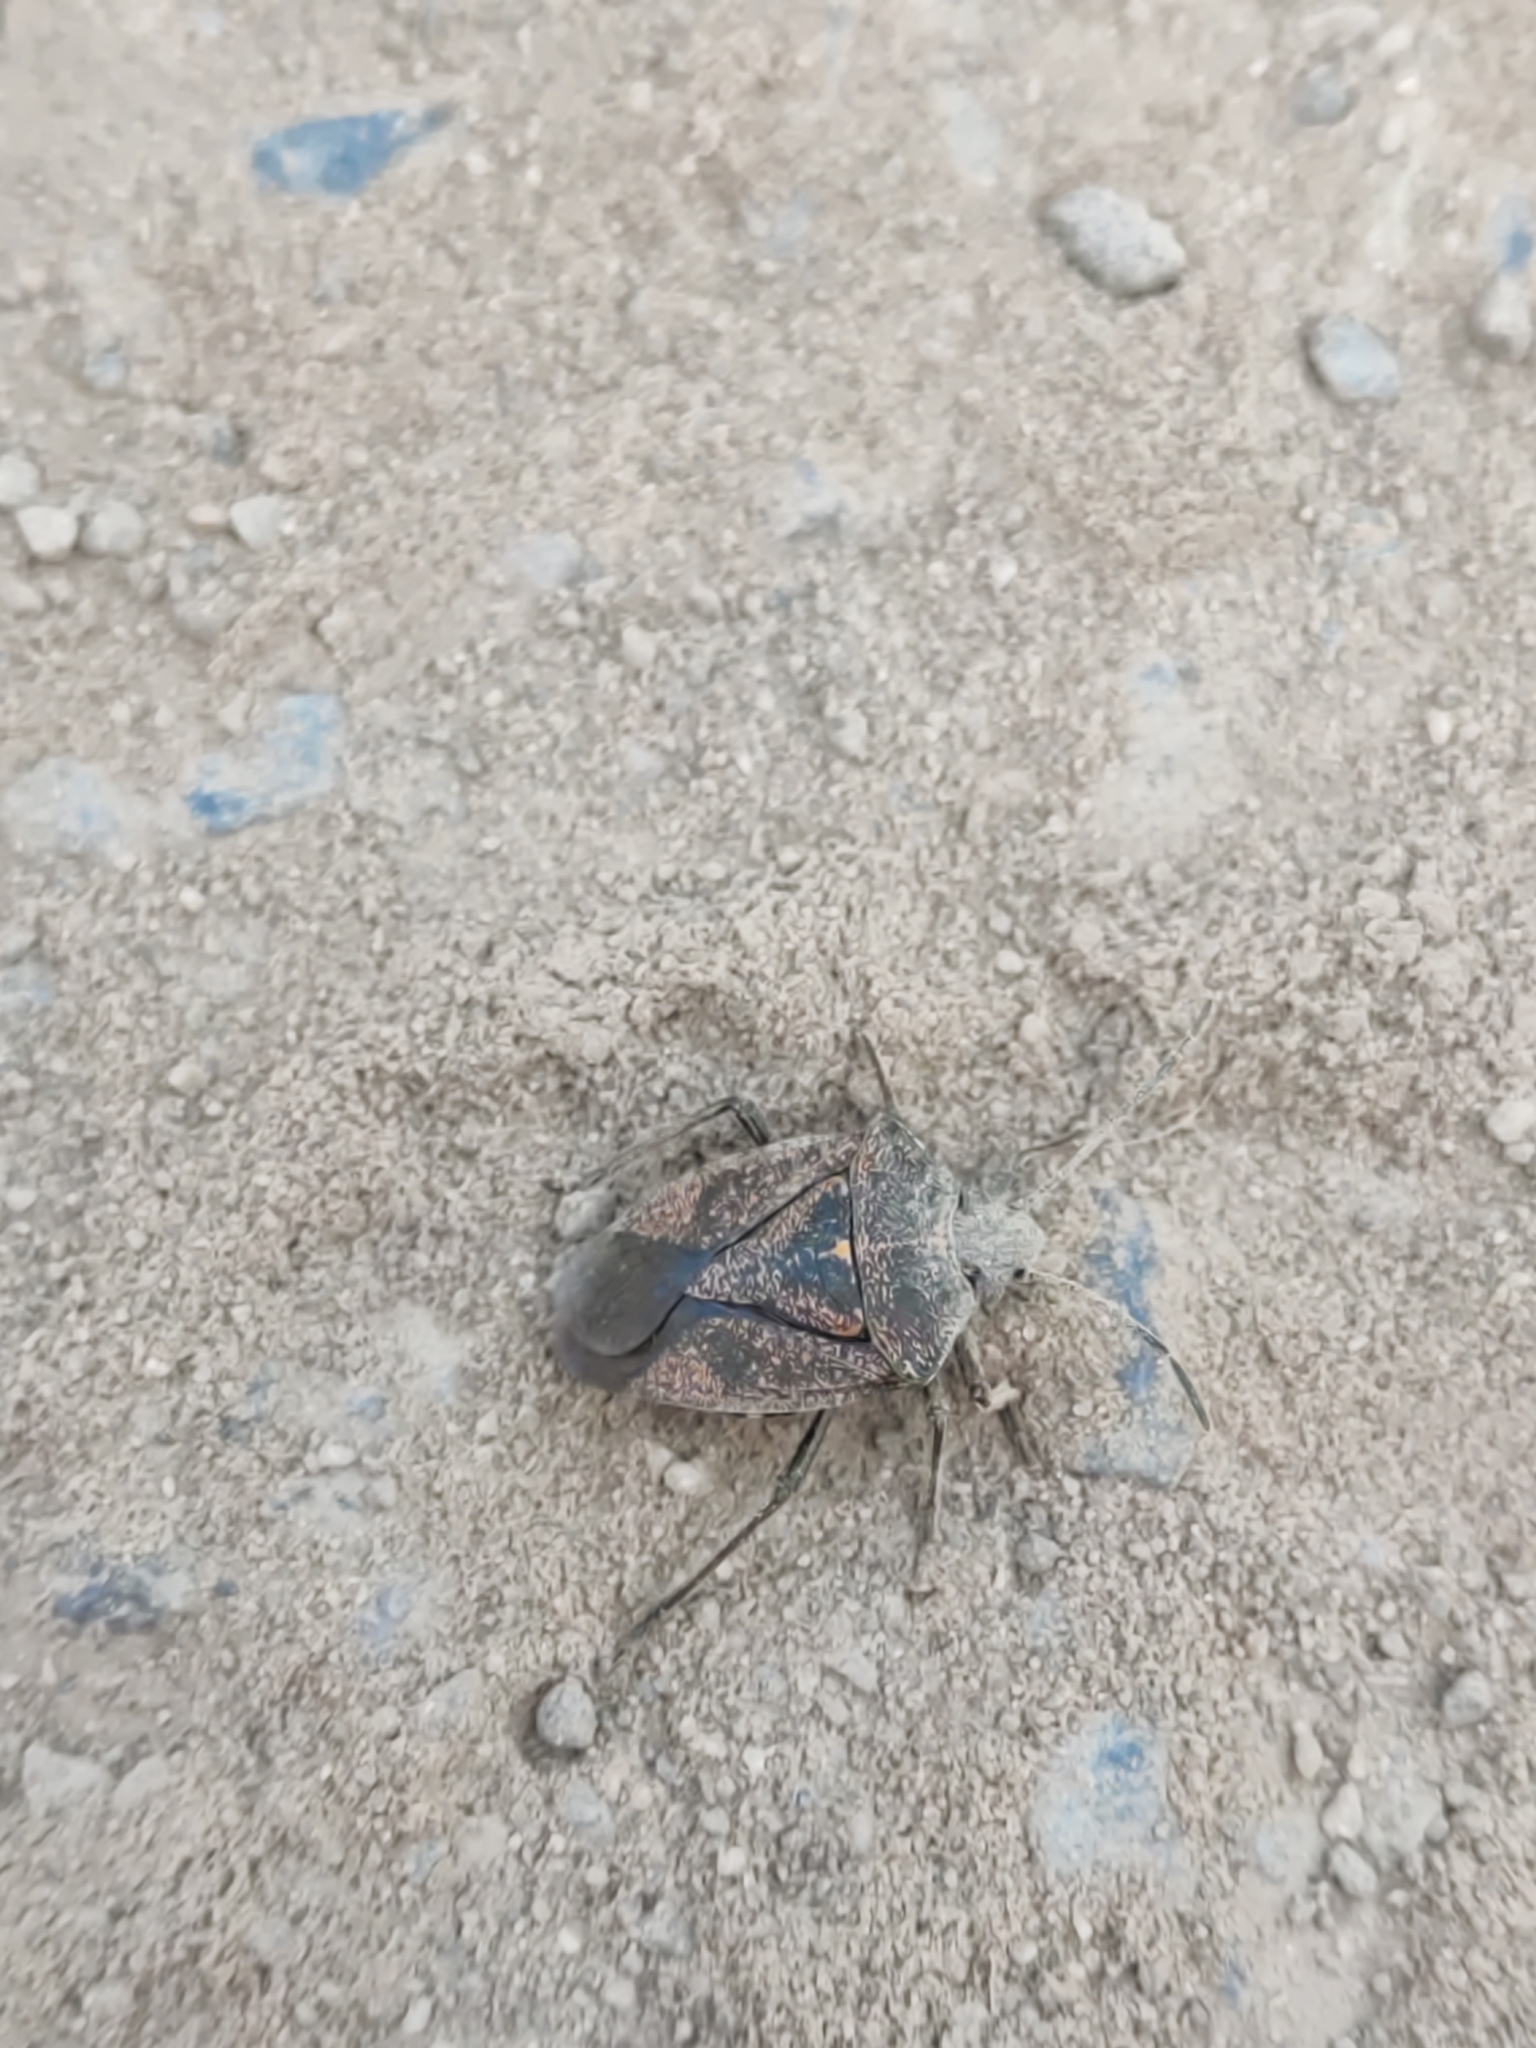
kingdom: Animalia
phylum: Arthropoda
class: Insecta
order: Hemiptera
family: Pentatomidae
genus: Pellaea
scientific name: Pellaea stictica
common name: Stink bug
